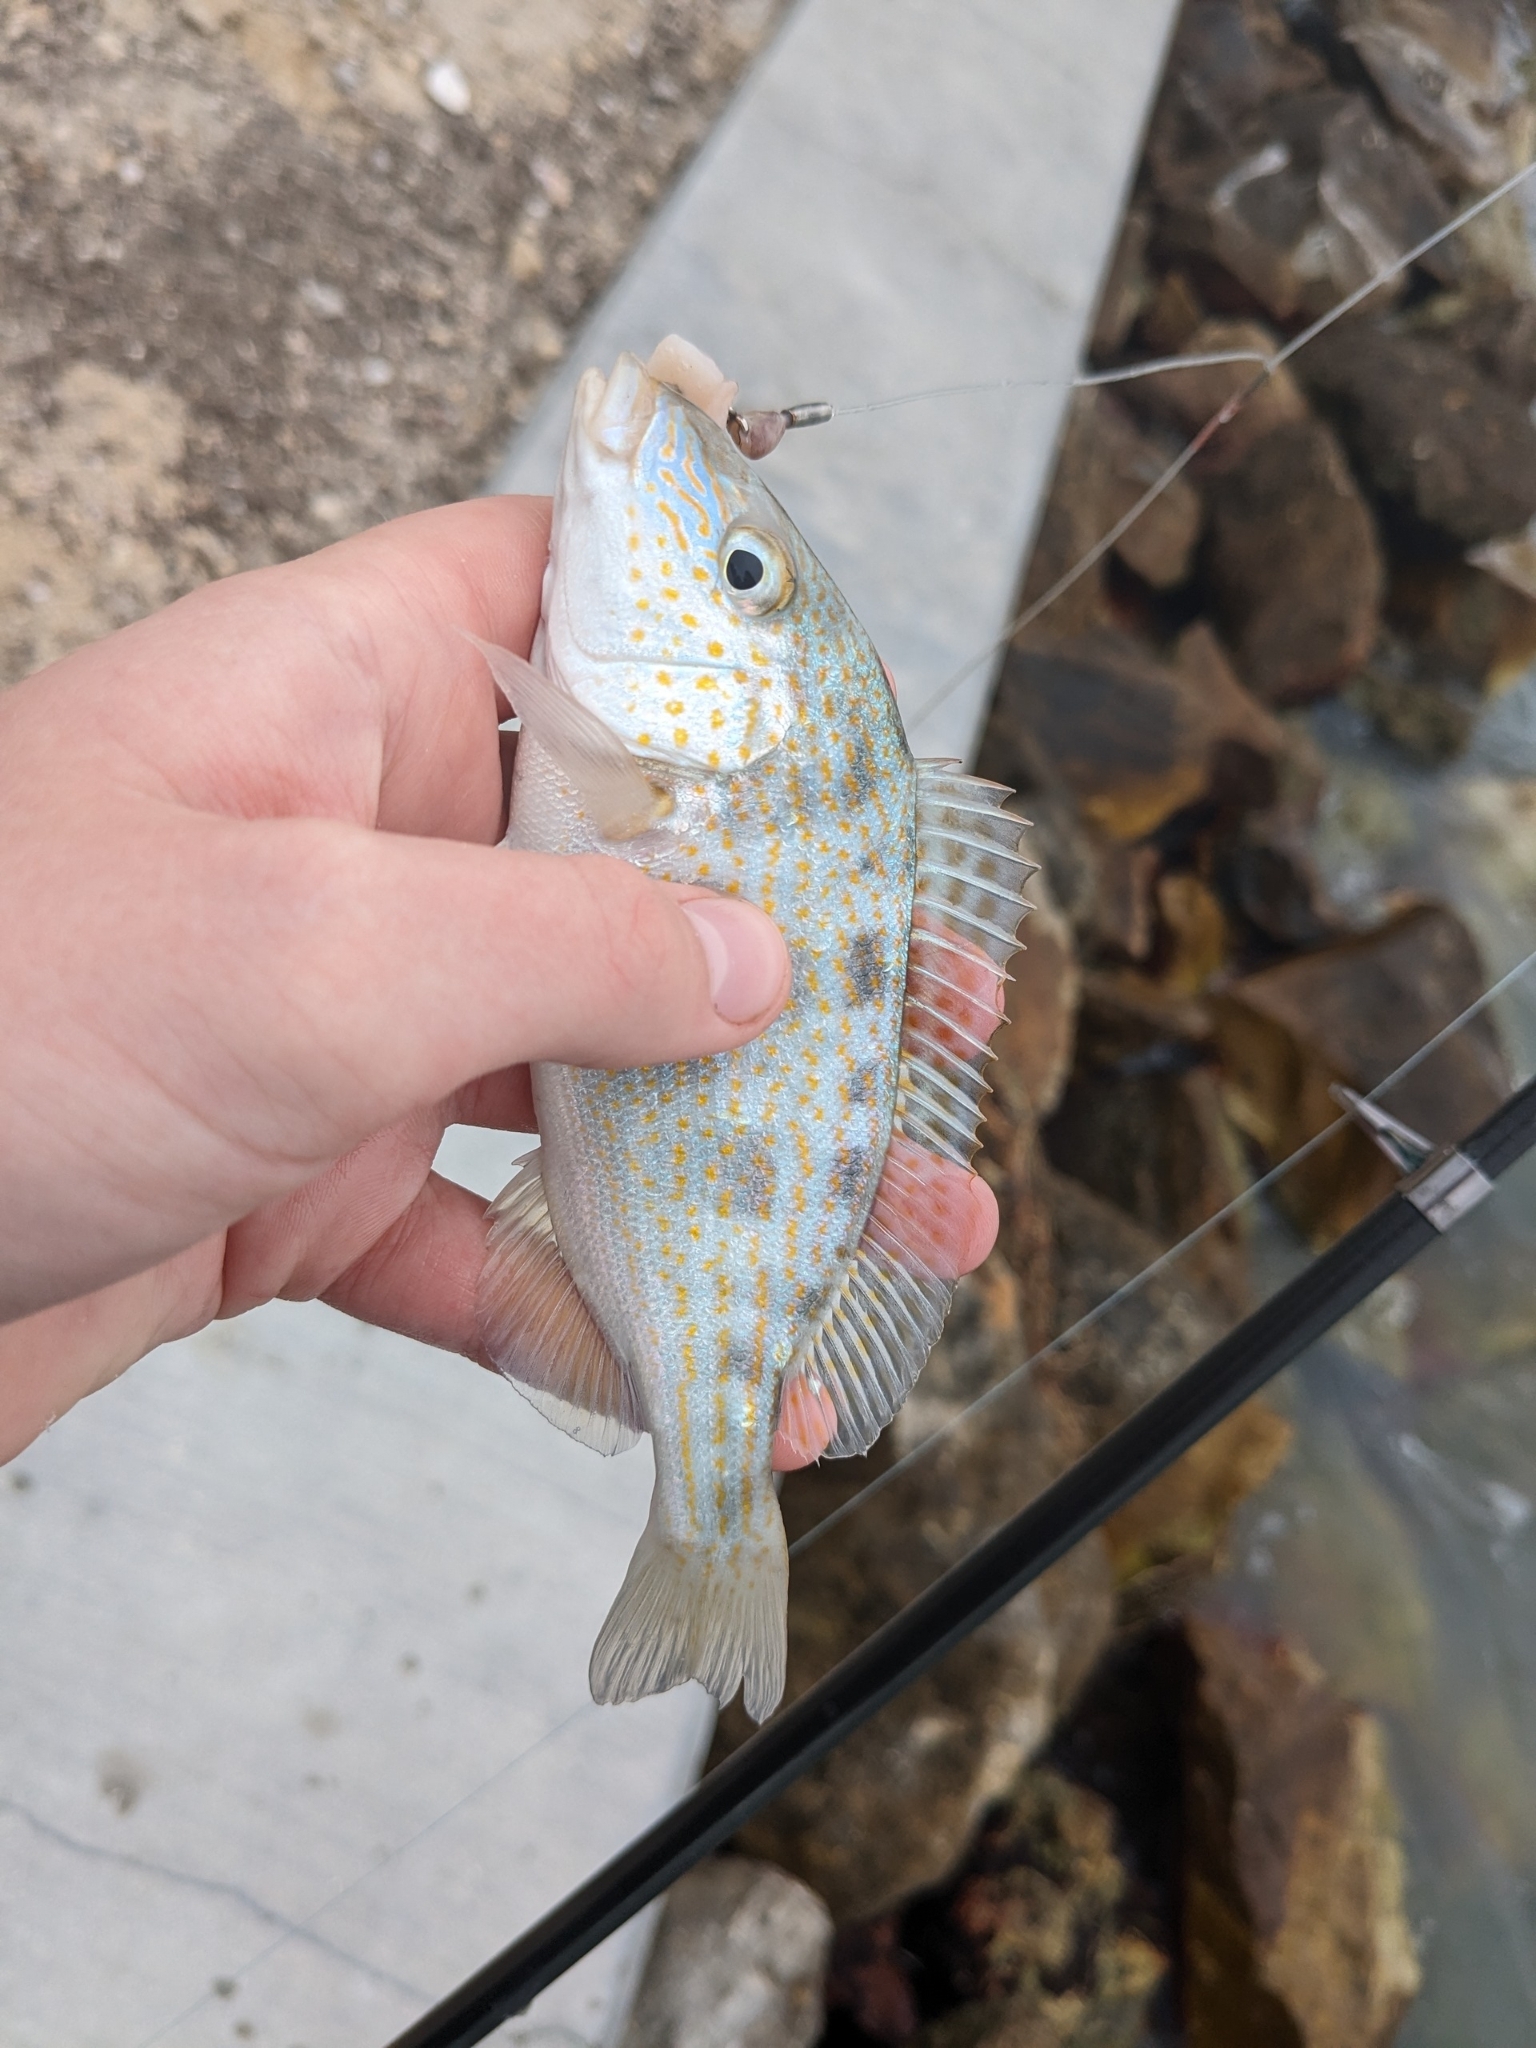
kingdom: Animalia
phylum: Chordata
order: Perciformes
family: Haemulidae
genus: Orthopristis
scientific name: Orthopristis chrysoptera
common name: Pigfish
